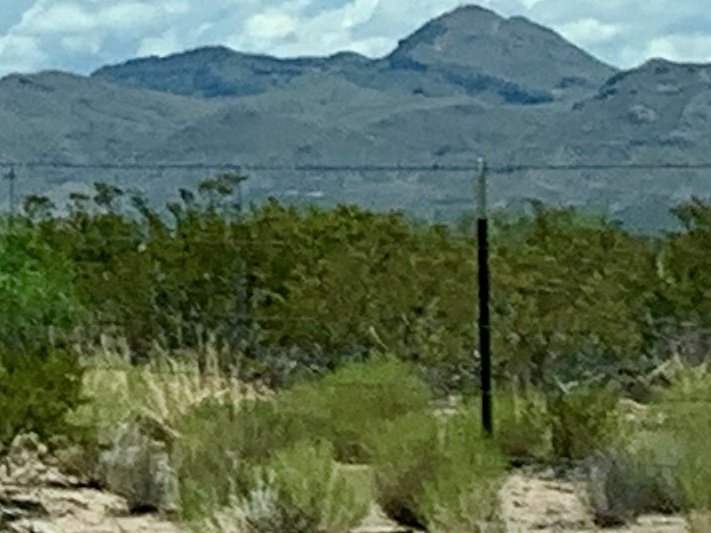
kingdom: Plantae
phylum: Tracheophyta
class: Magnoliopsida
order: Zygophyllales
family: Zygophyllaceae
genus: Larrea
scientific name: Larrea tridentata
